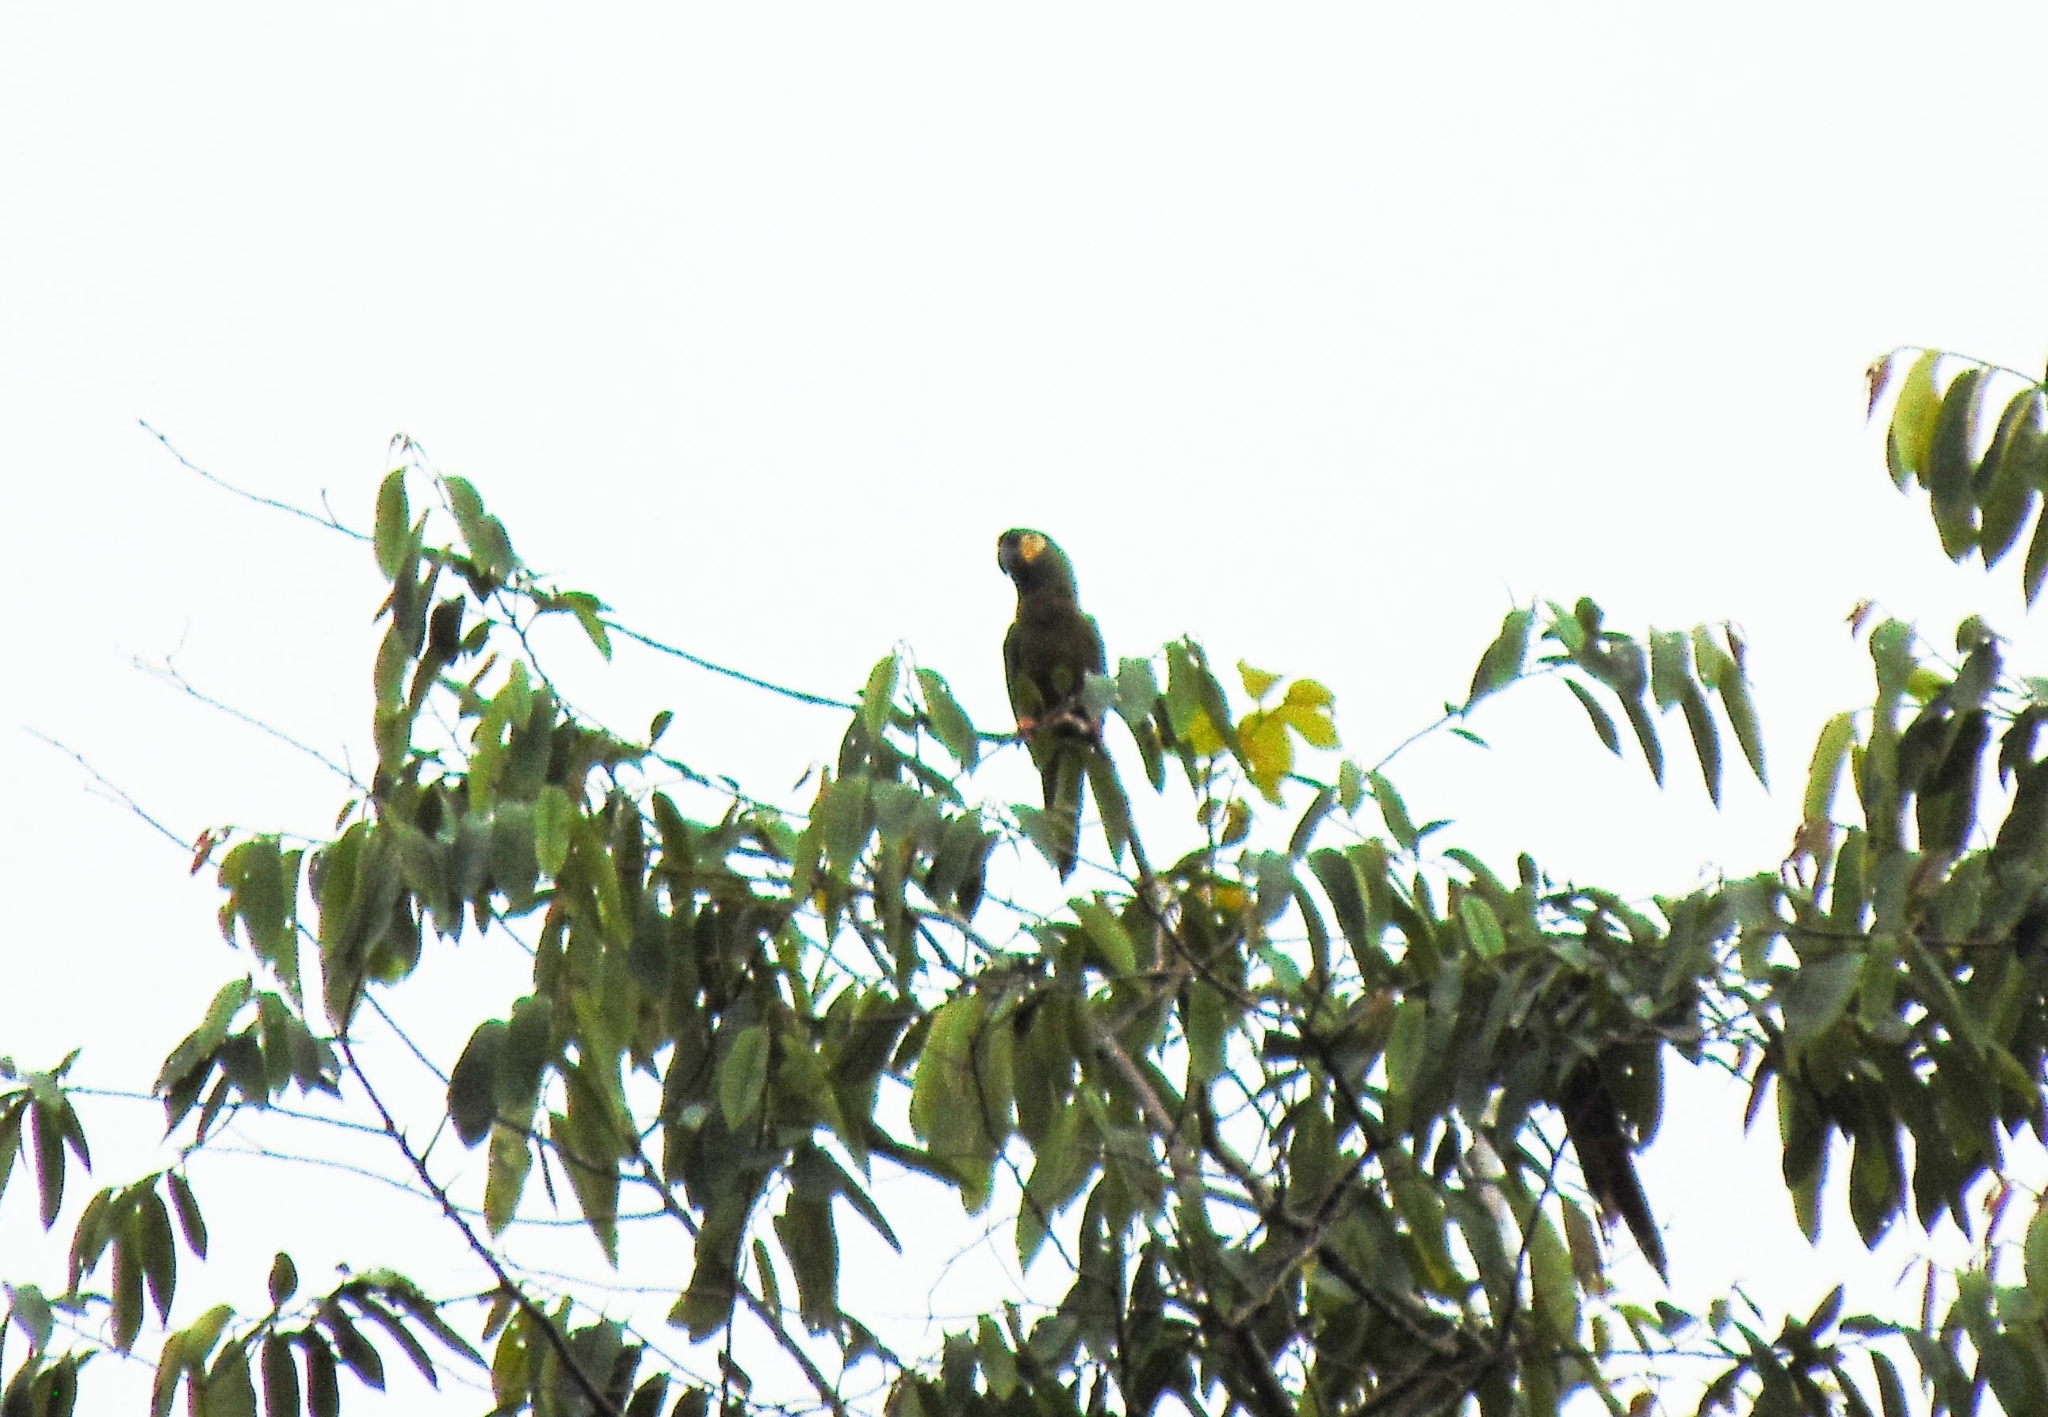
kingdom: Animalia
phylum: Chordata
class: Aves
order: Psittaciformes
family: Psittacidae
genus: Primolius
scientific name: Primolius maracana
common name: Blue-winged macaw
